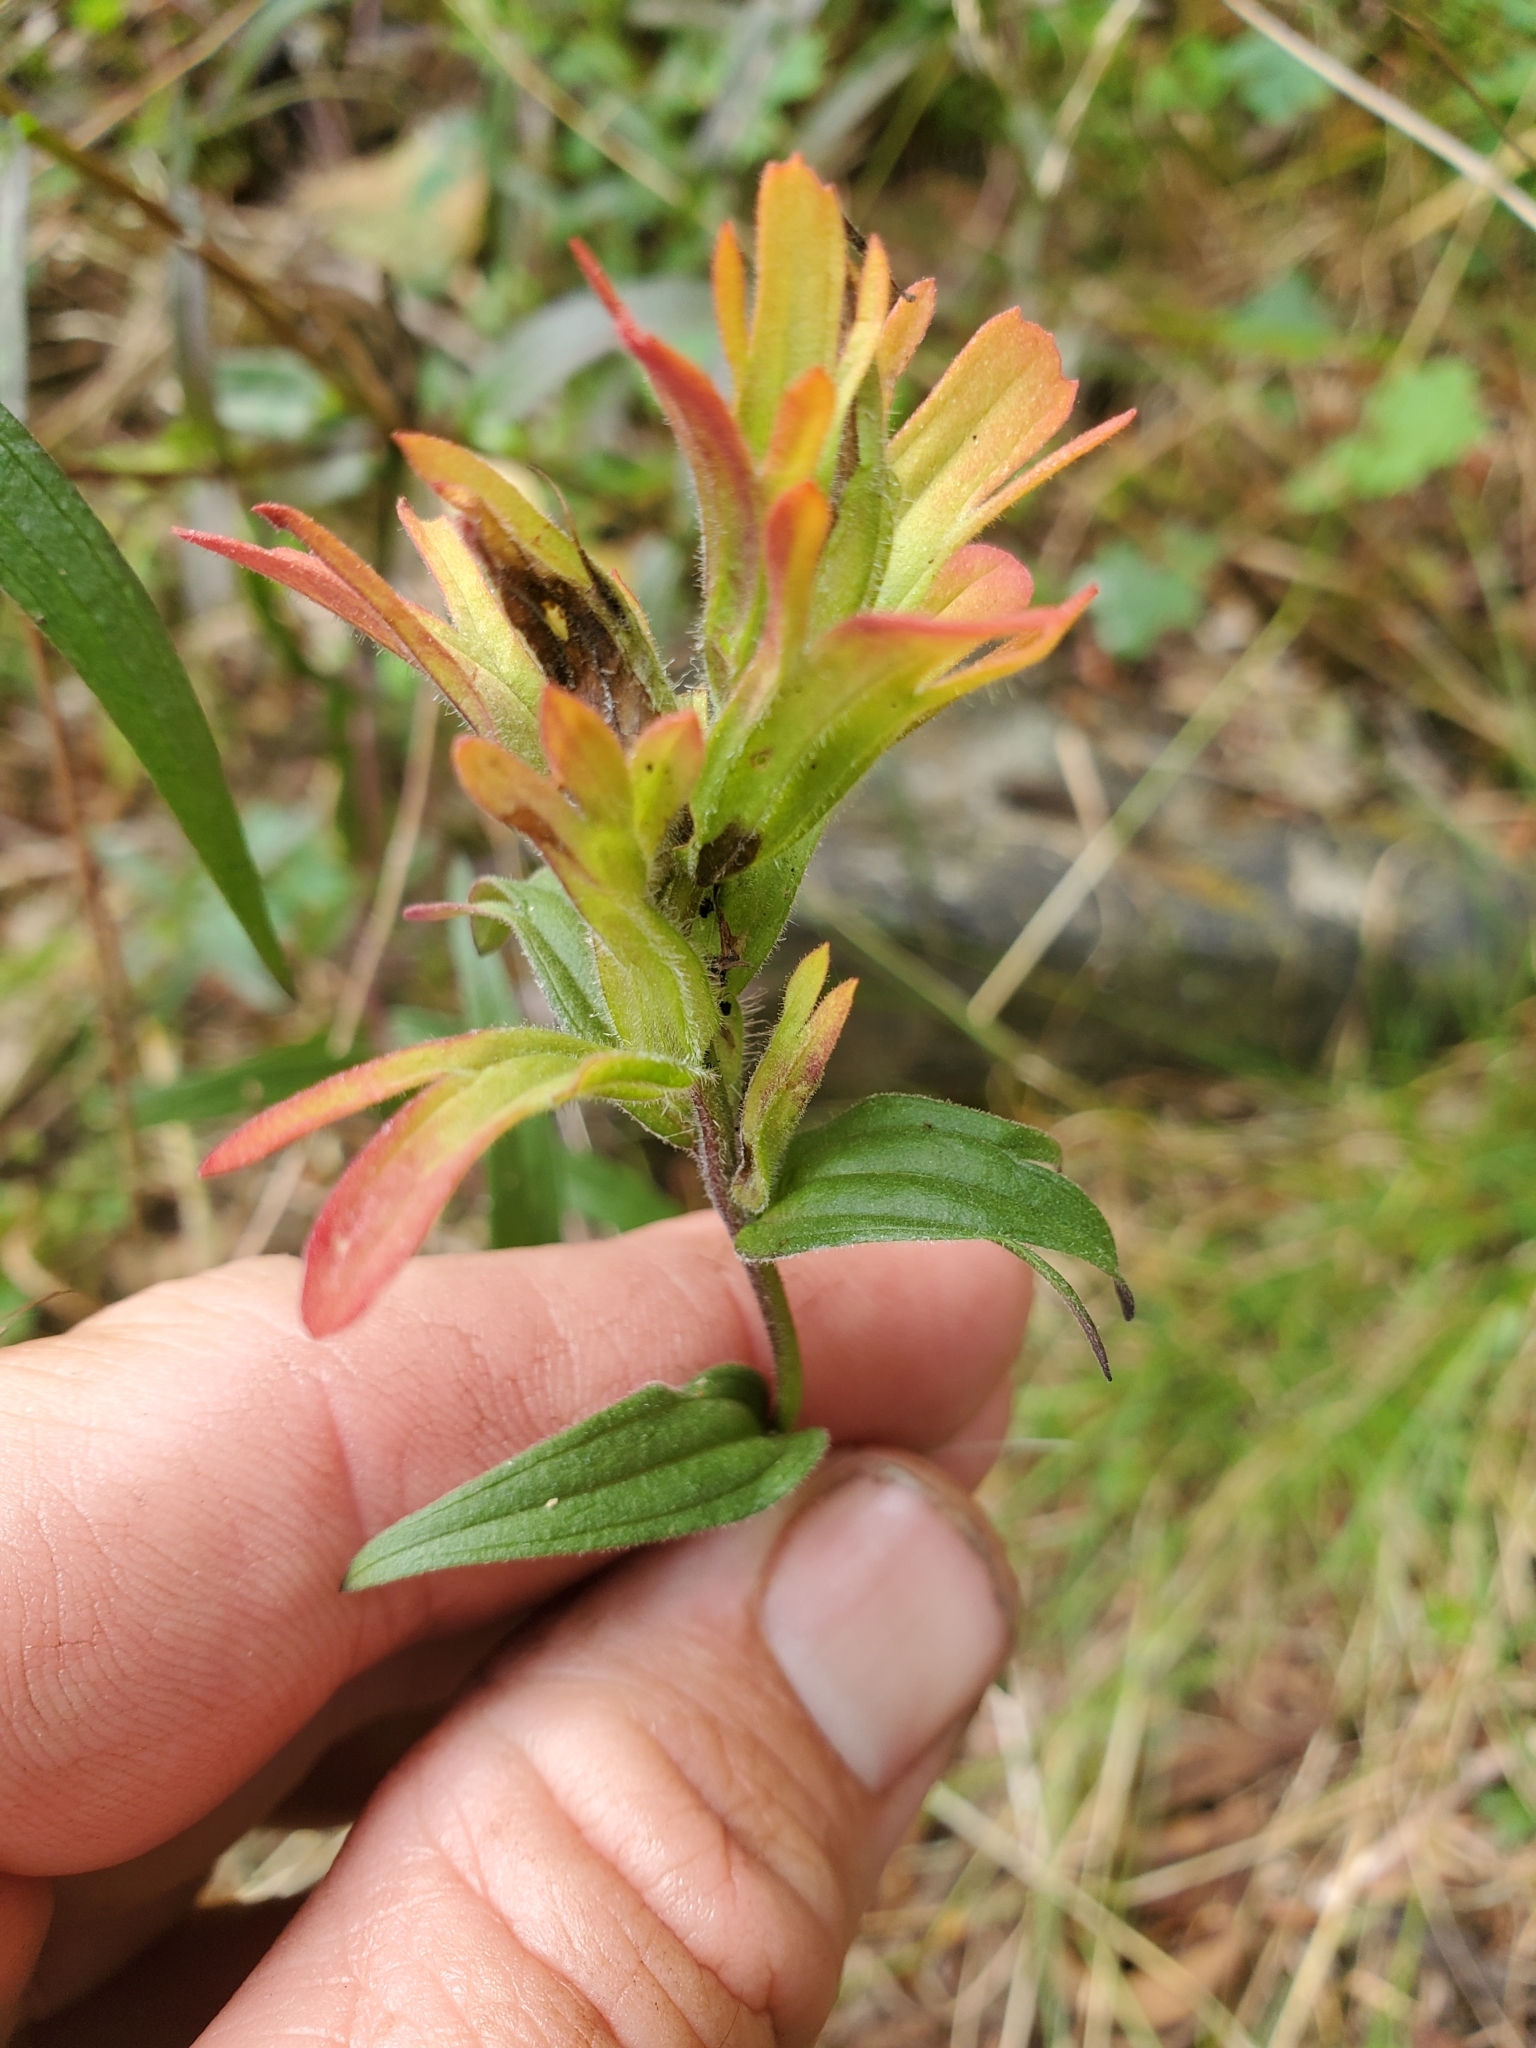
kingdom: Plantae
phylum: Tracheophyta
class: Magnoliopsida
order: Lamiales
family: Orobanchaceae
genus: Castilleja
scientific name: Castilleja hispida
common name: Bristly paintbrush
